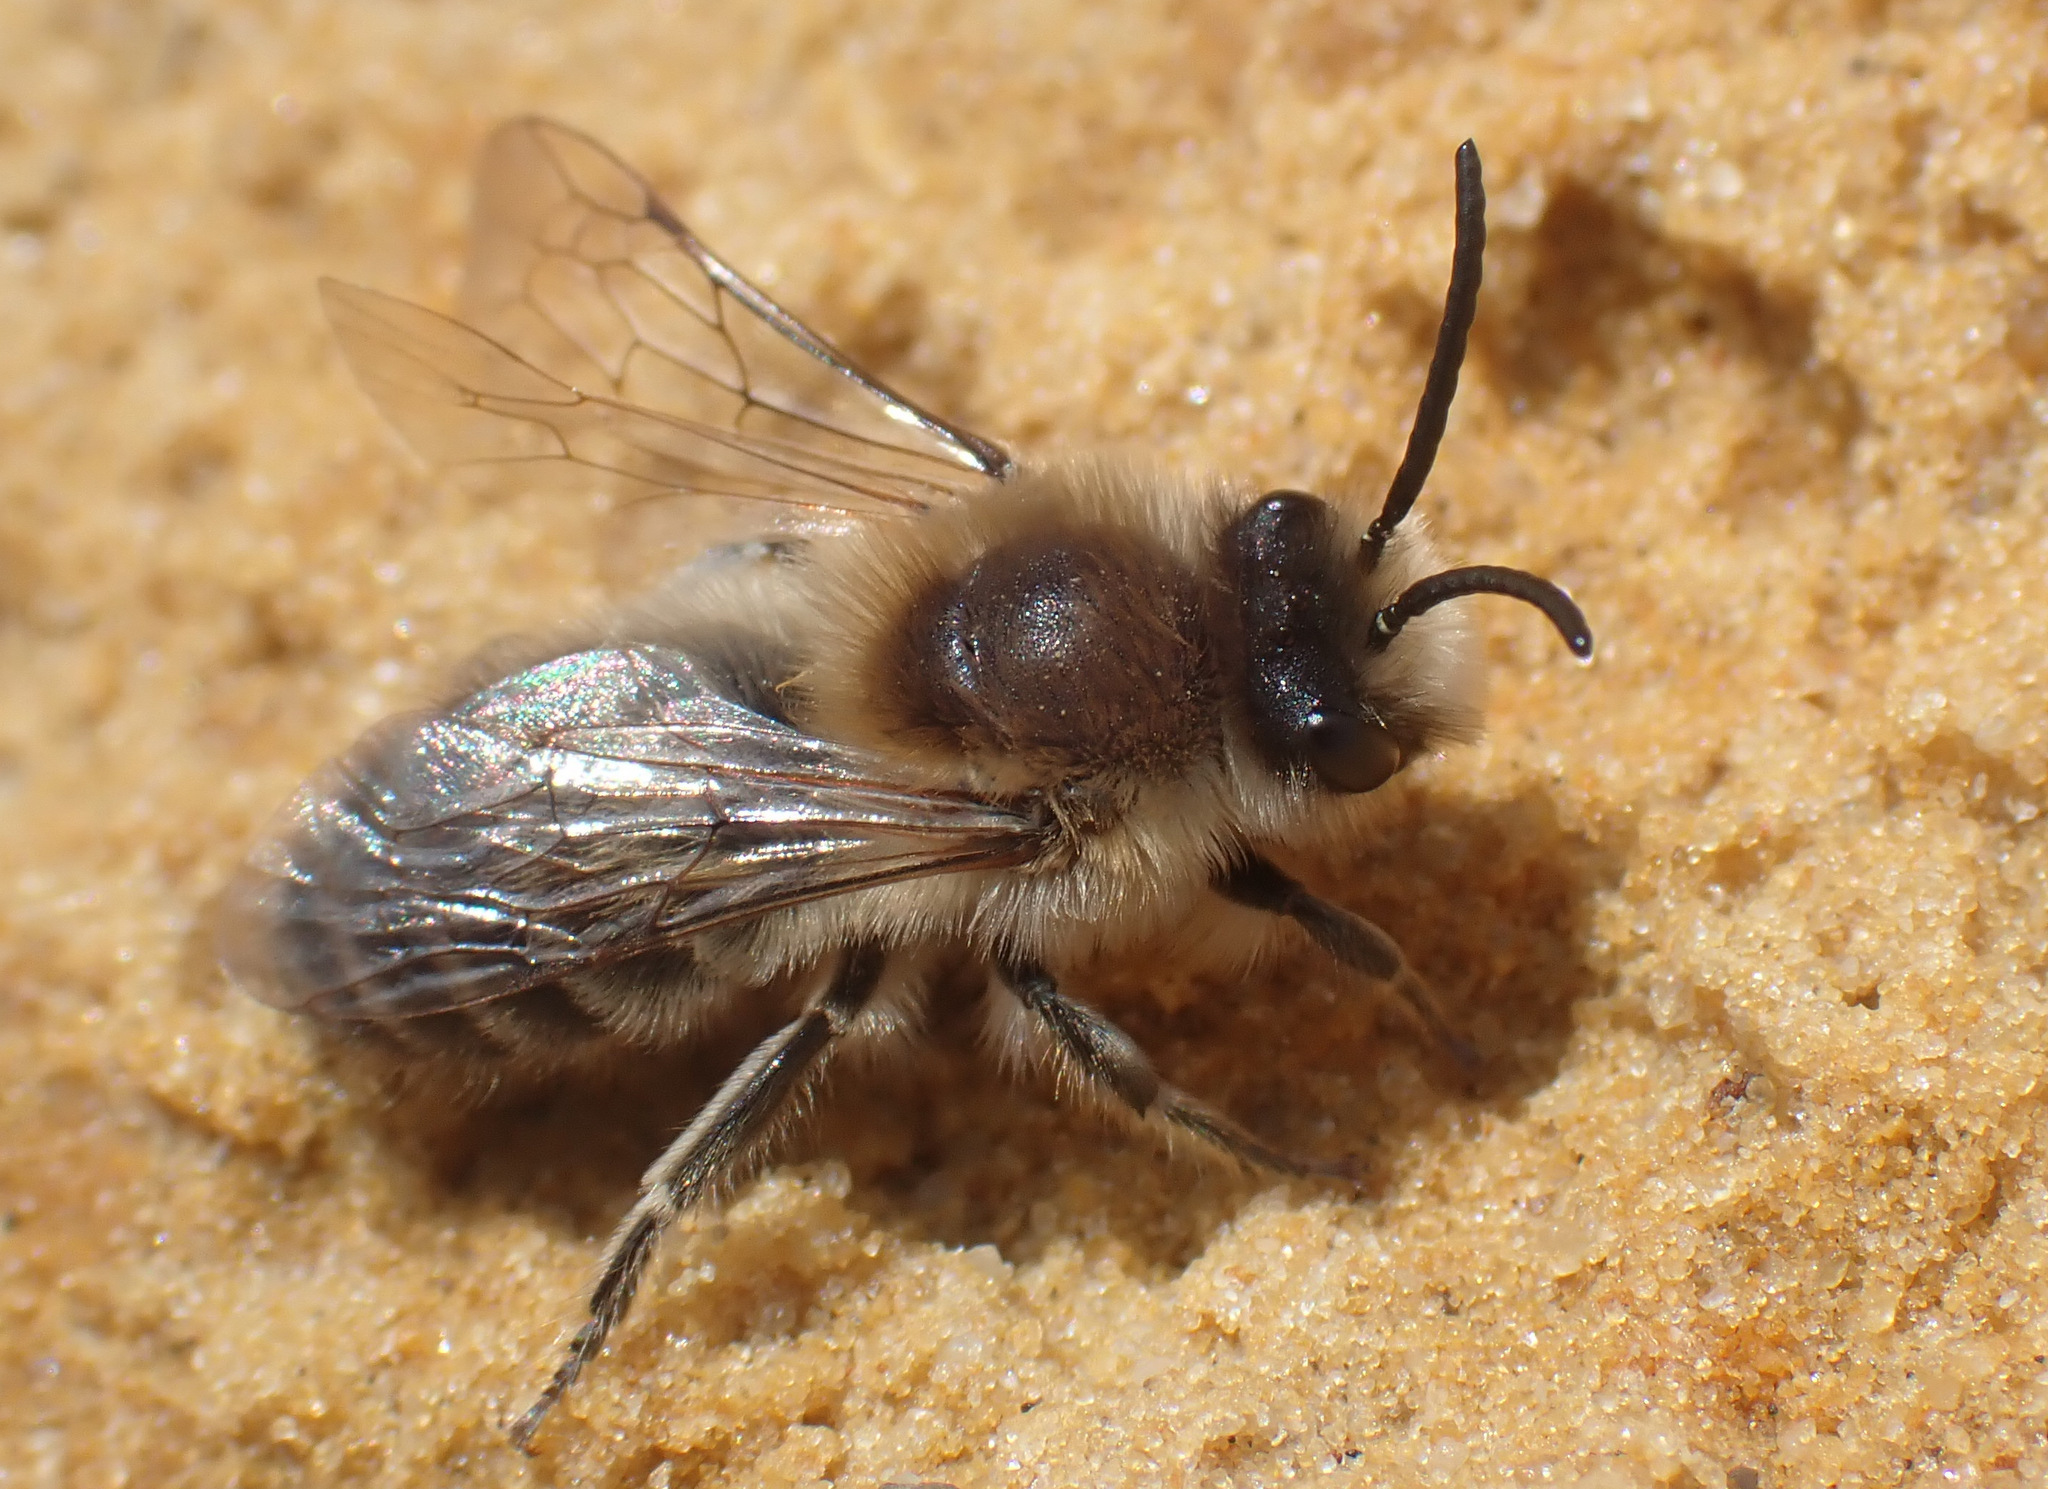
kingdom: Animalia
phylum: Arthropoda
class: Insecta
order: Hymenoptera
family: Colletidae
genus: Colletes
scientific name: Colletes cunicularius
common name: Early colletes
